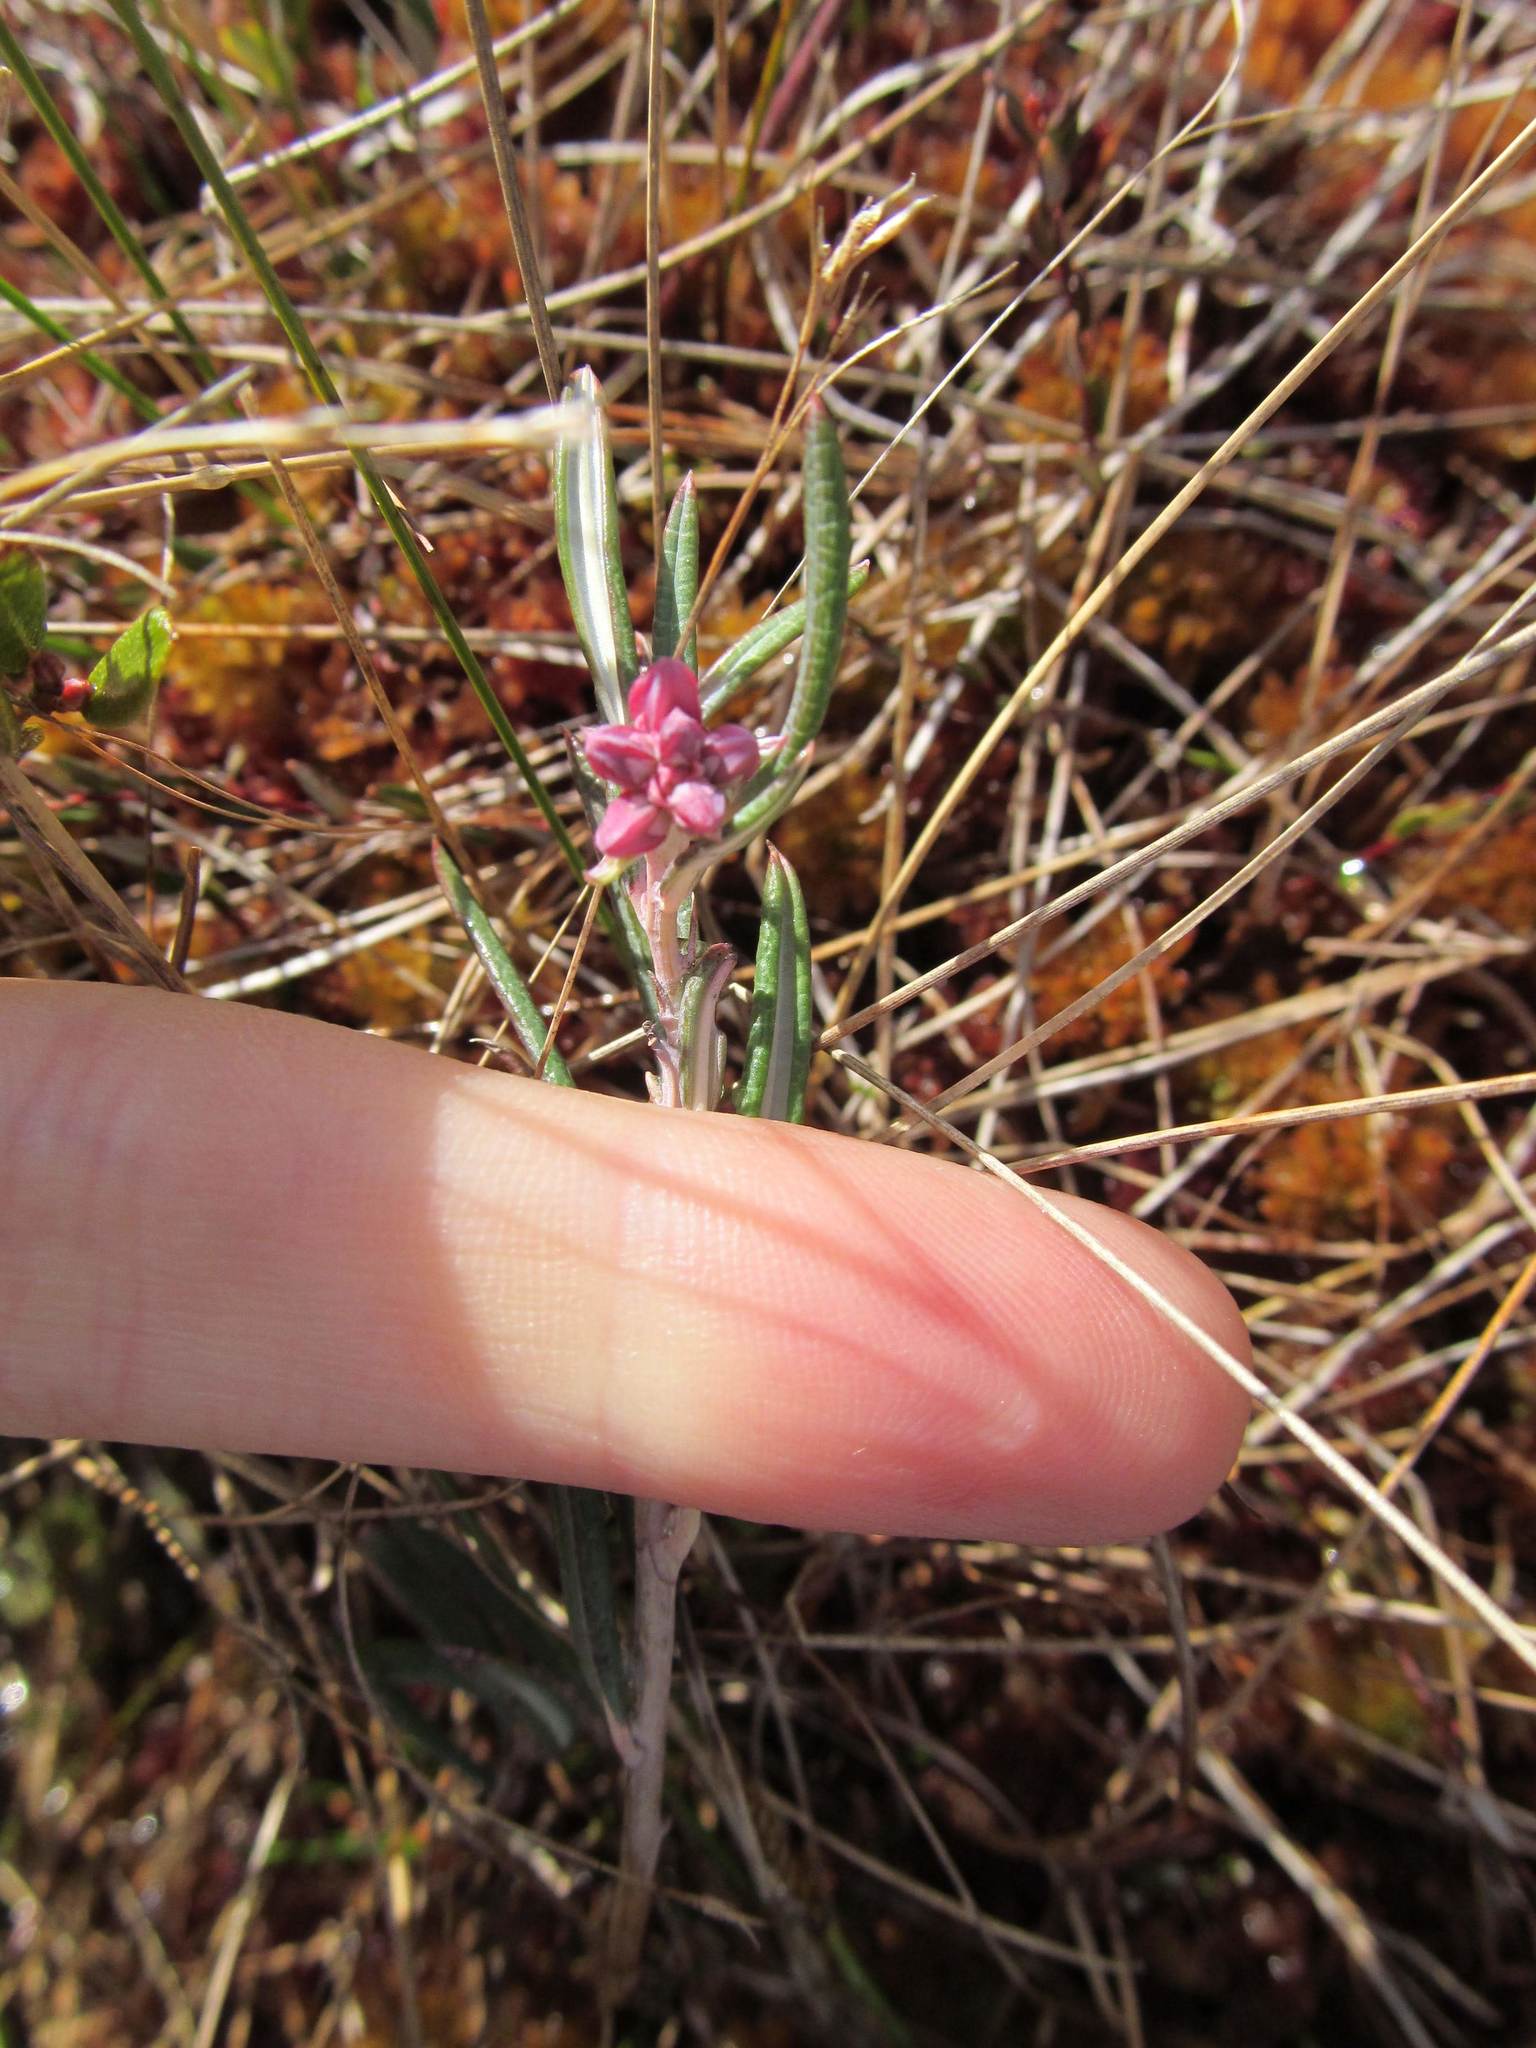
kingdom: Plantae
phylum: Tracheophyta
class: Magnoliopsida
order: Ericales
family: Ericaceae
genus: Andromeda
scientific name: Andromeda polifolia
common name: Bog-rosemary
